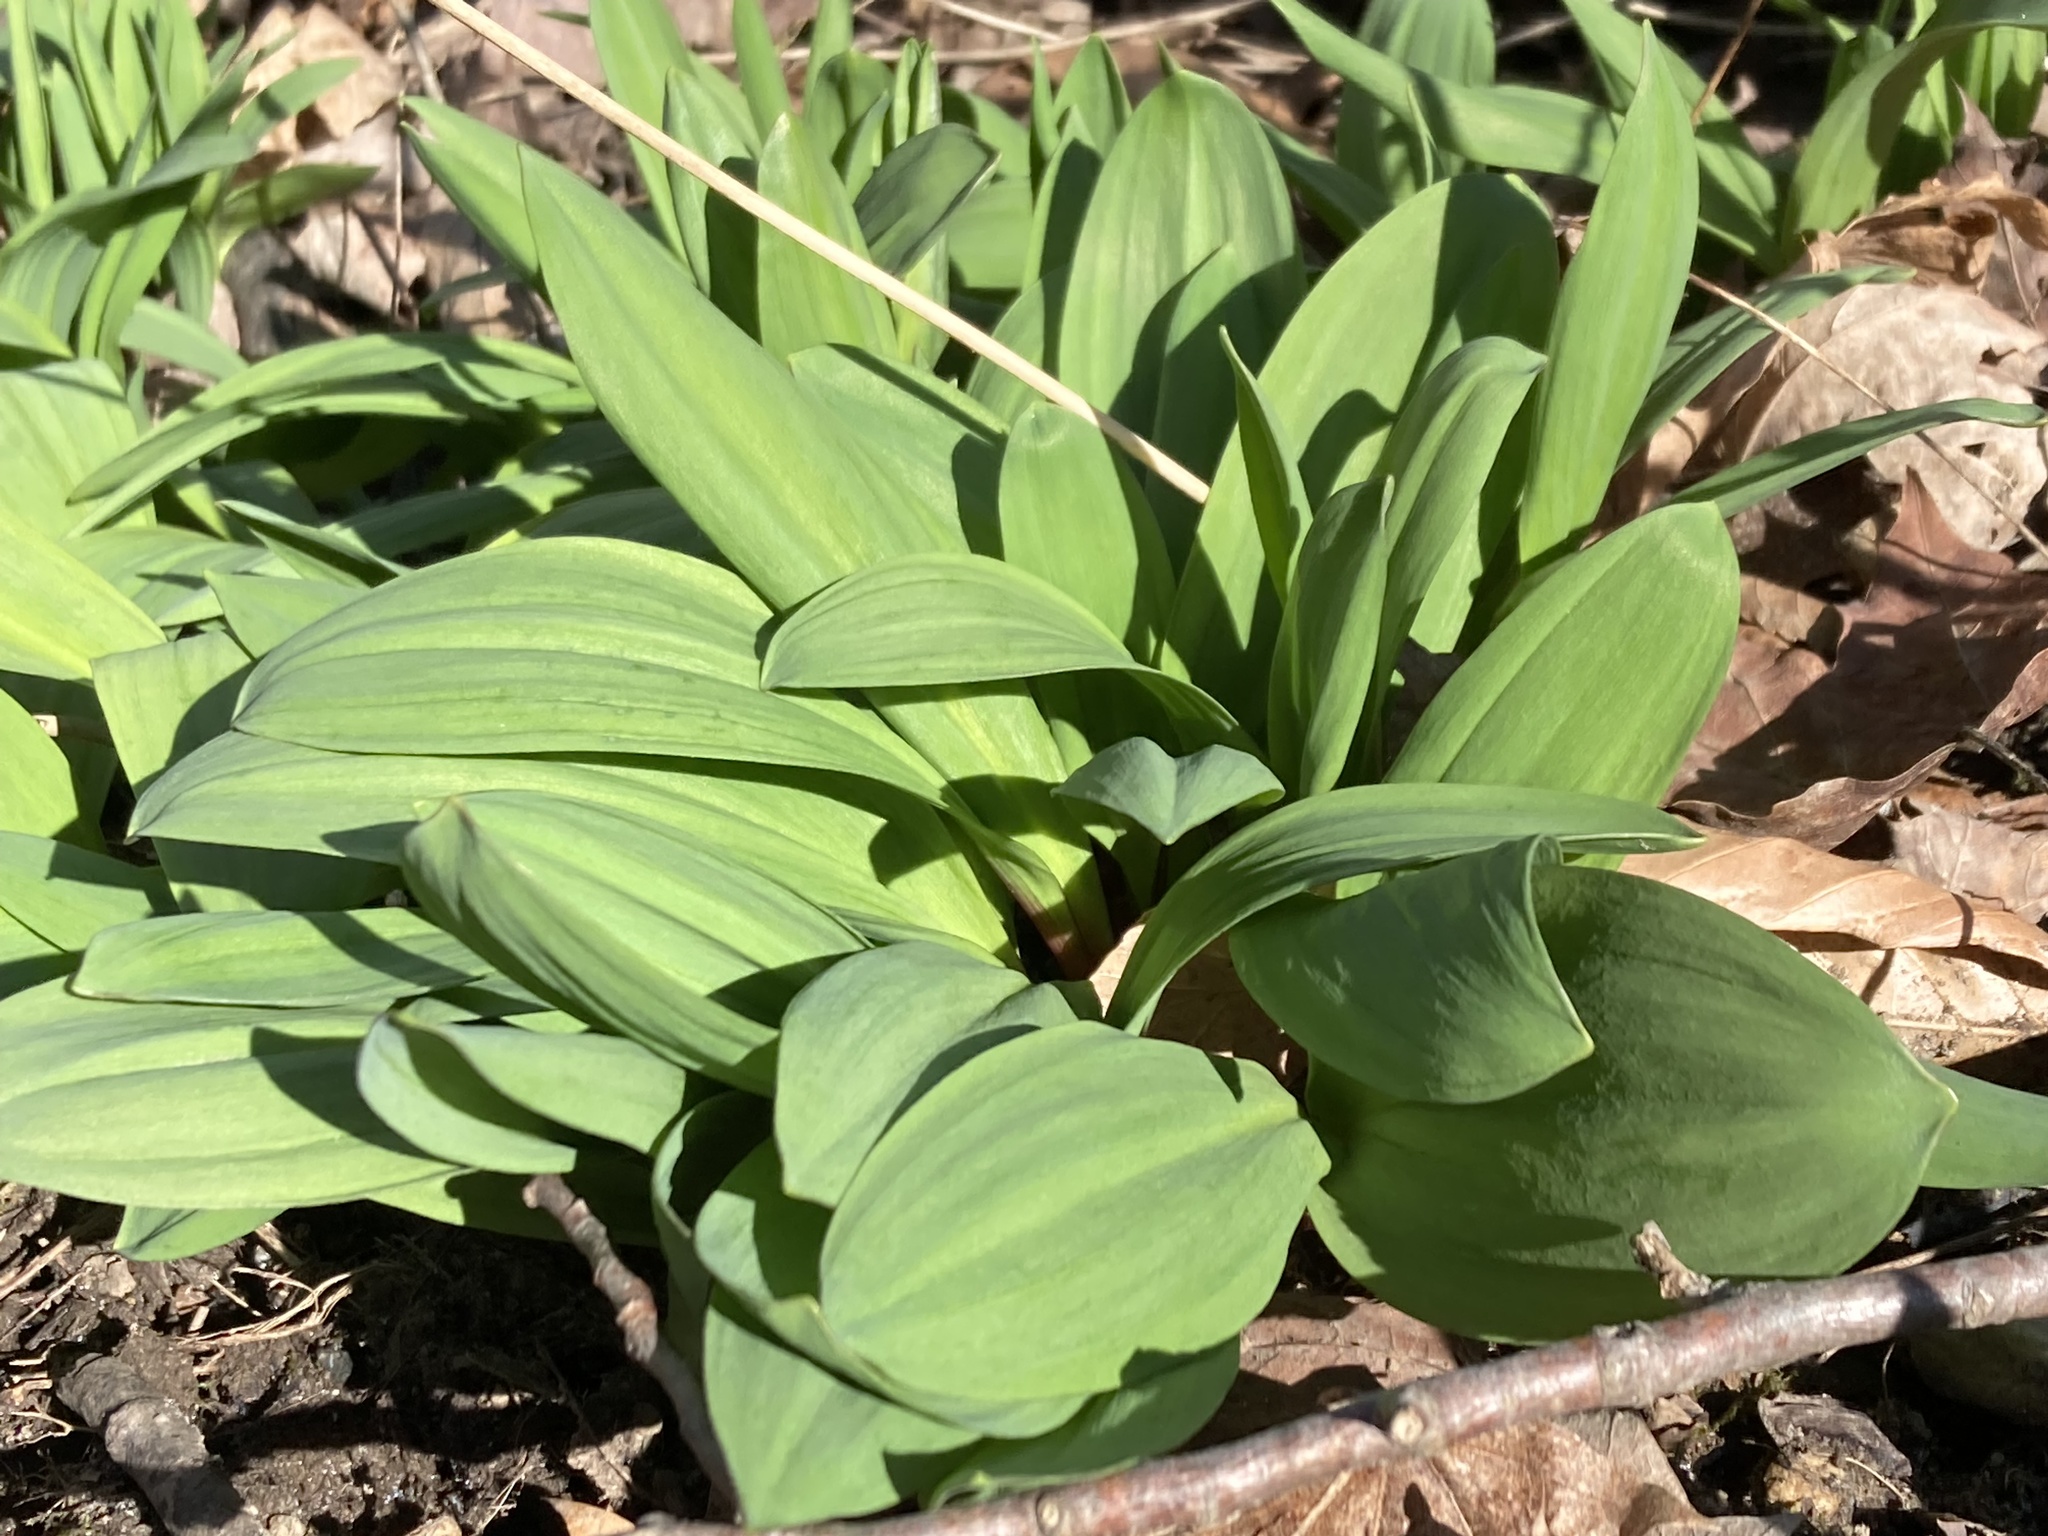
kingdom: Plantae
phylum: Tracheophyta
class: Liliopsida
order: Asparagales
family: Amaryllidaceae
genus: Allium
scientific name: Allium tricoccum
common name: Ramp
